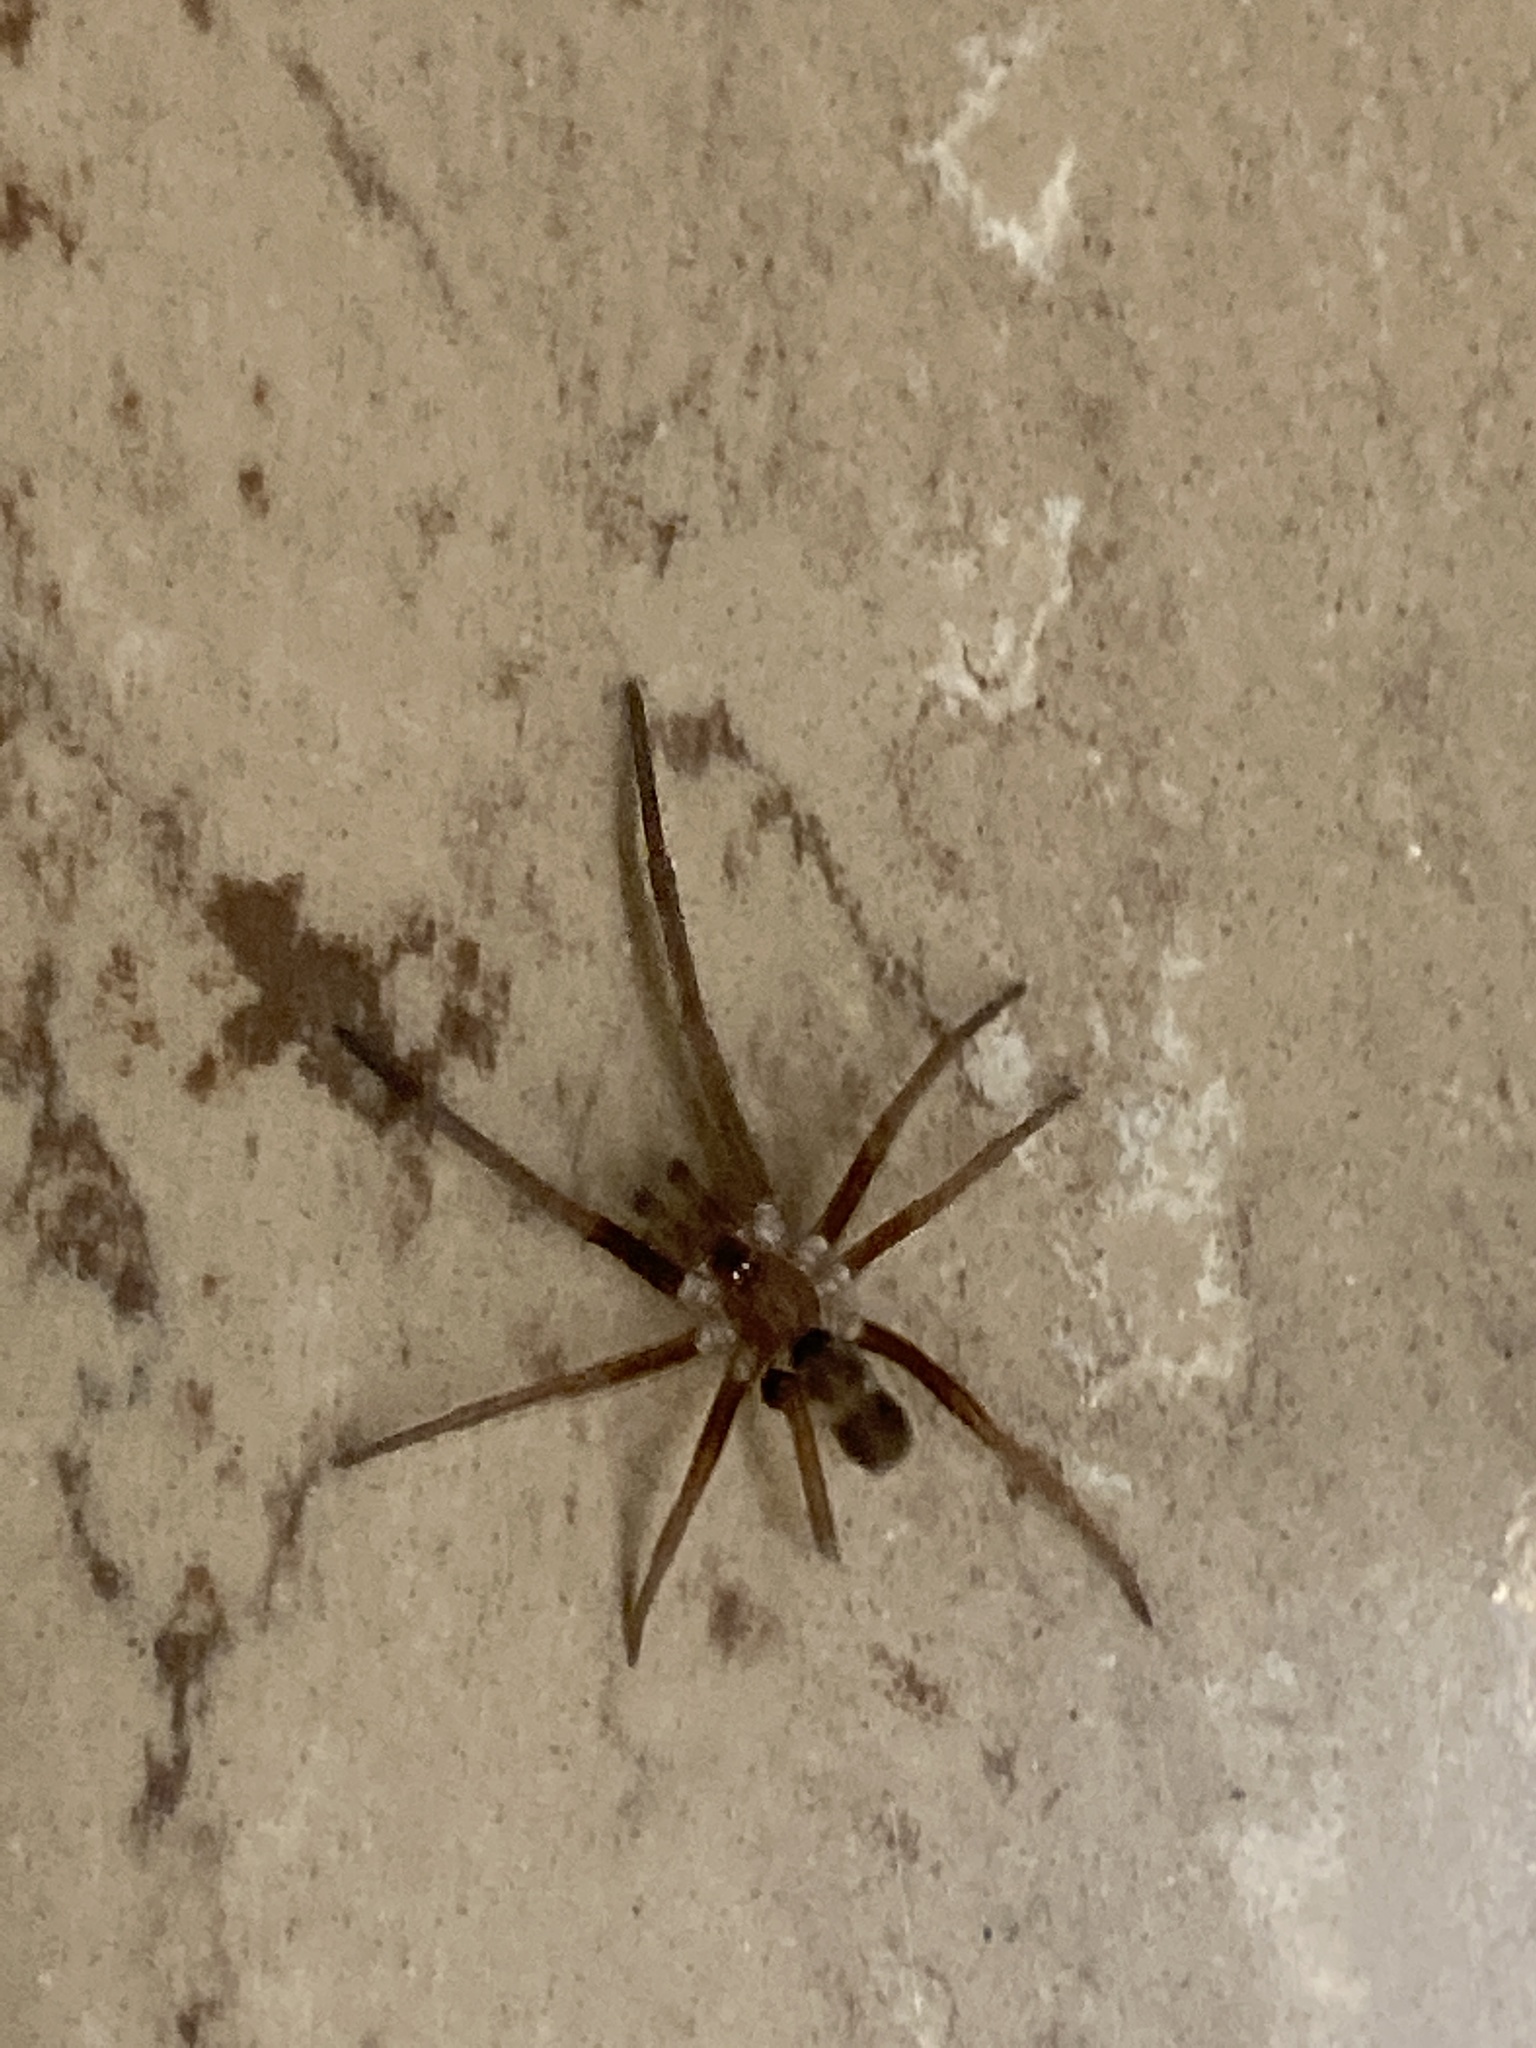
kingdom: Animalia
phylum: Arthropoda
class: Arachnida
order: Araneae
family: Filistatidae
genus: Kukulcania
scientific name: Kukulcania hibernalis
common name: Crevice weaver
